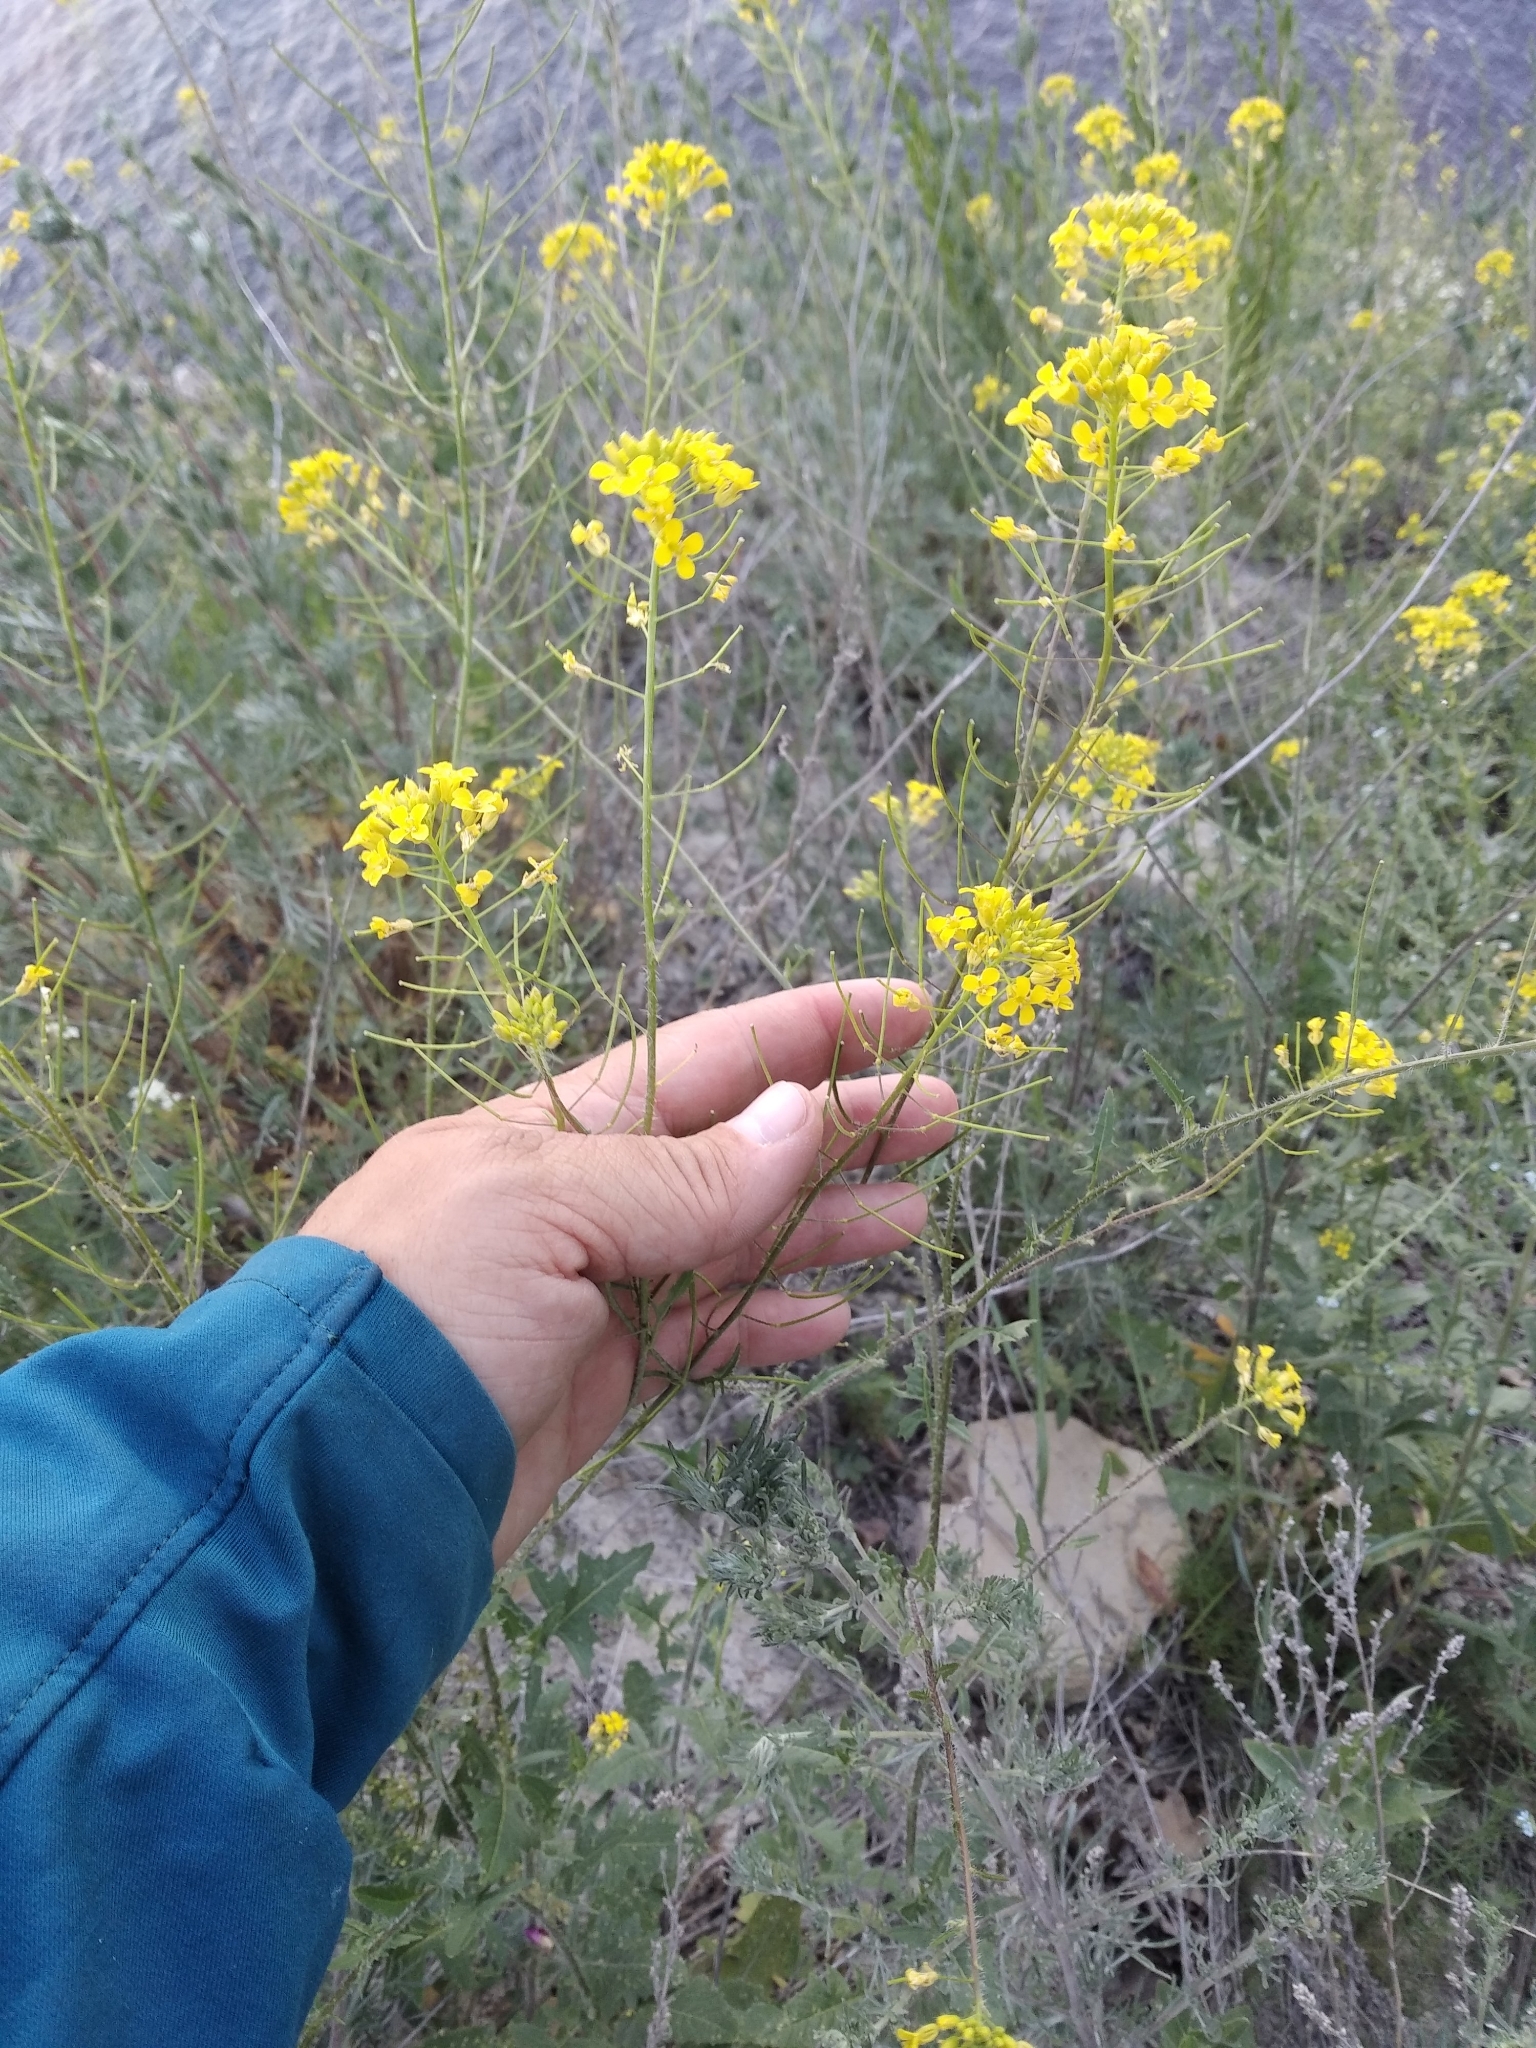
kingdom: Plantae
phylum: Tracheophyta
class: Magnoliopsida
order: Brassicales
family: Brassicaceae
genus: Sisymbrium
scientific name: Sisymbrium loeselii
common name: False london-rocket
